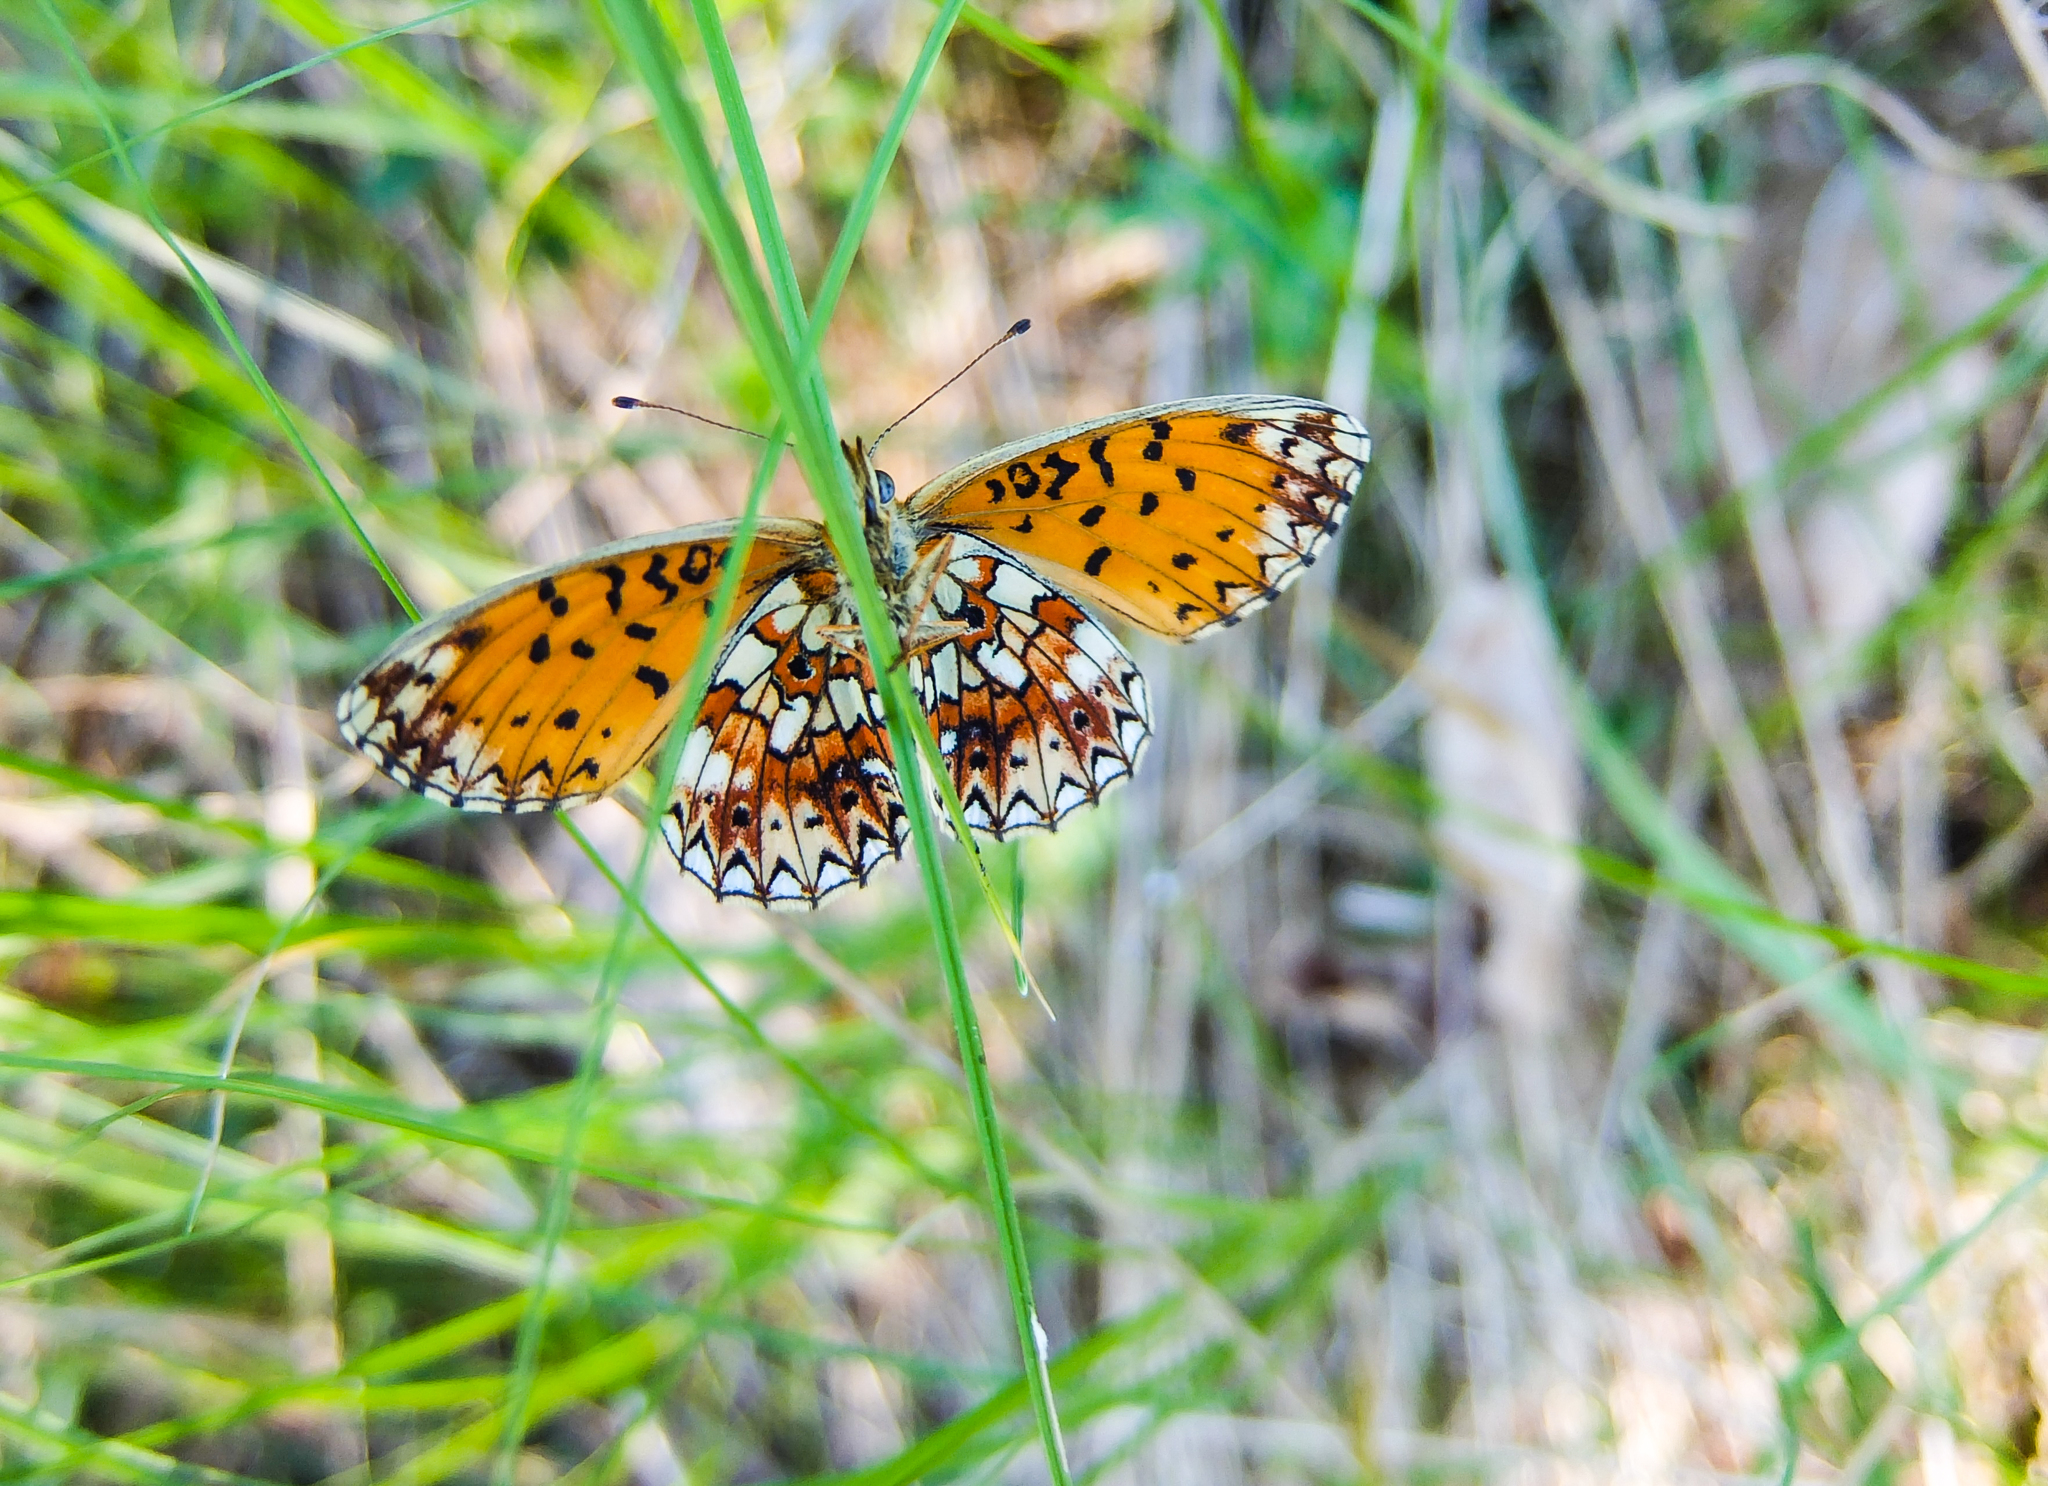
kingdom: Animalia
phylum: Arthropoda
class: Insecta
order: Lepidoptera
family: Nymphalidae
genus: Boloria
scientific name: Boloria selene
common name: Small pearl-bordered fritillary
